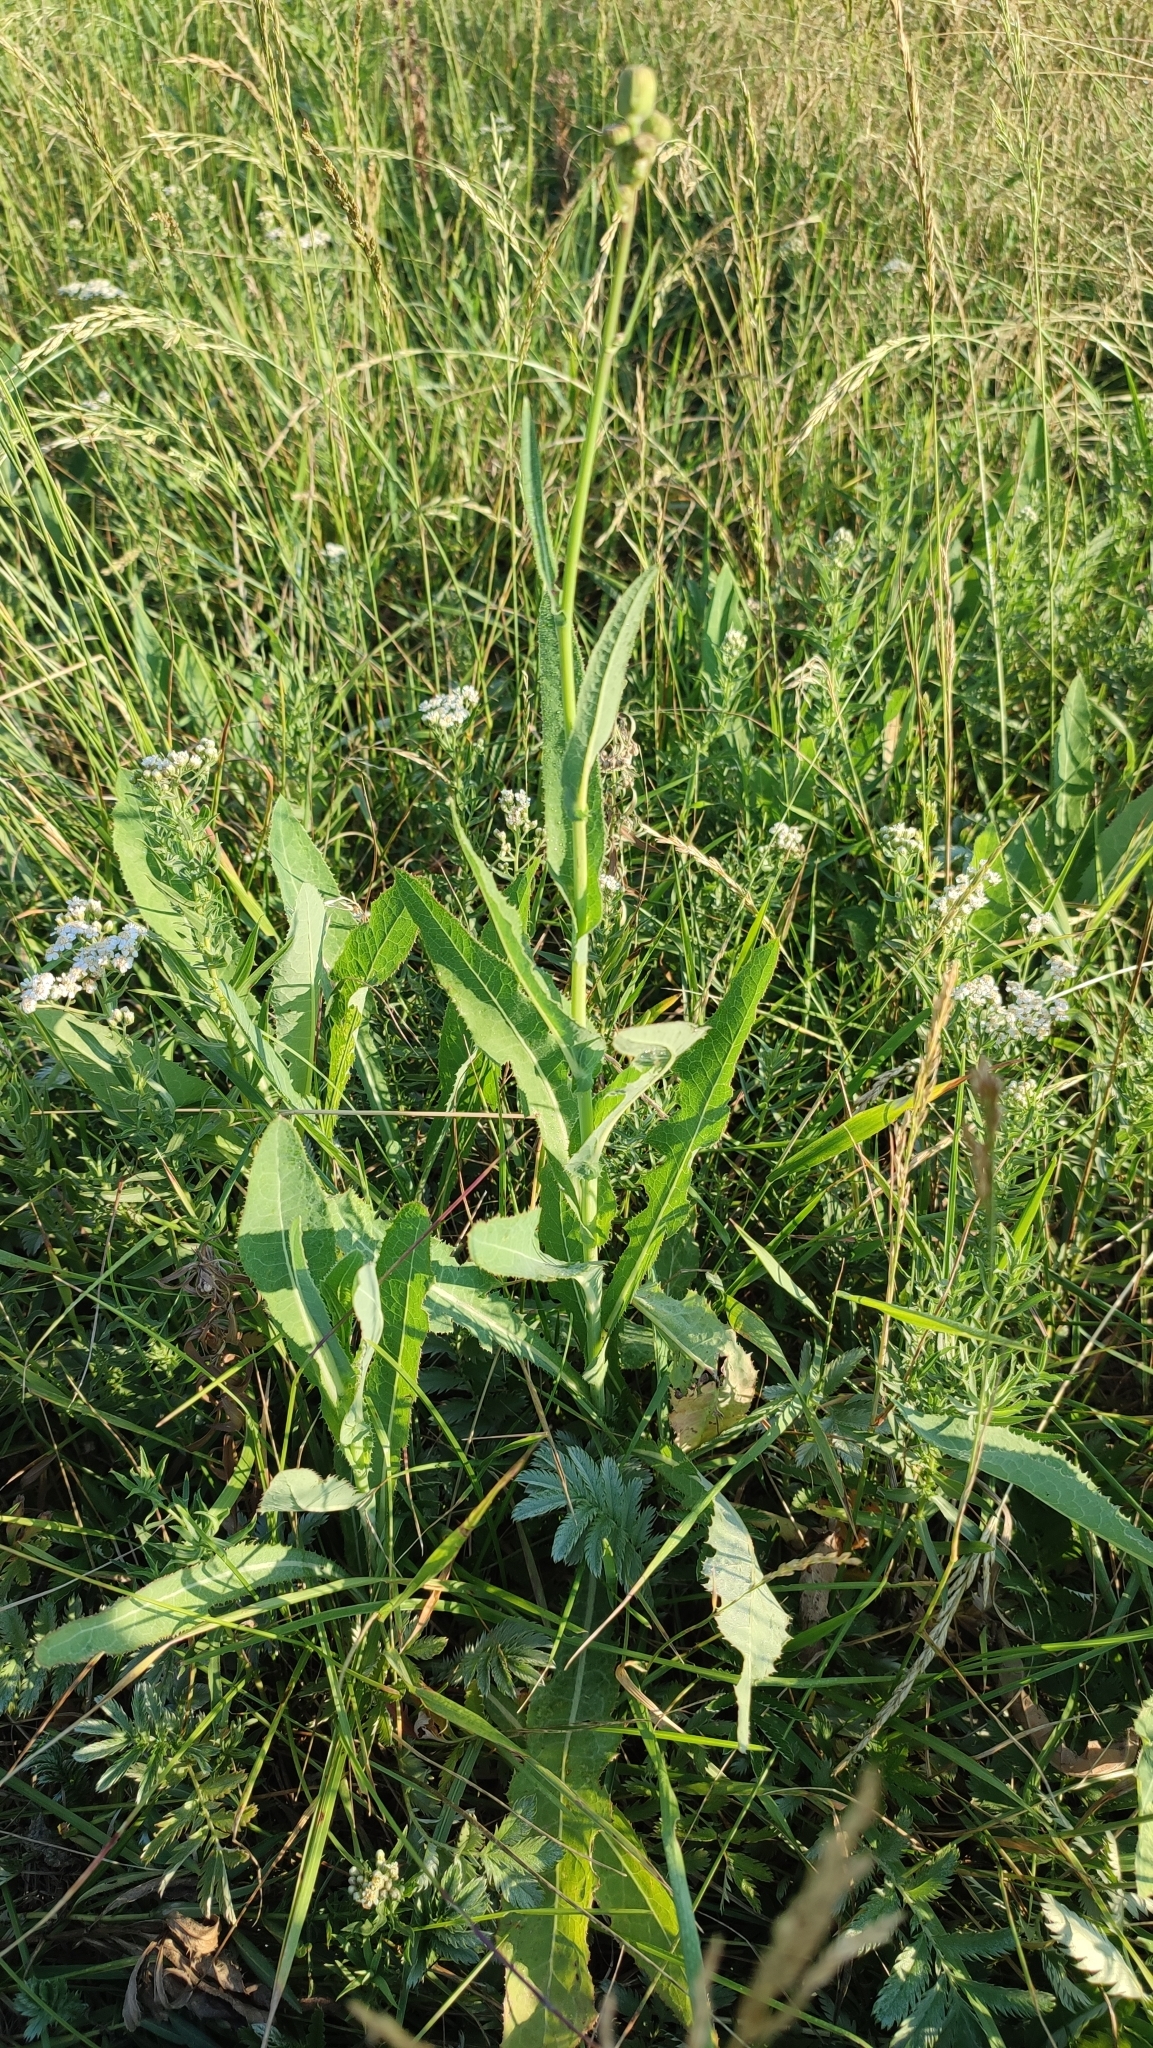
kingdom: Plantae
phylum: Tracheophyta
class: Magnoliopsida
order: Asterales
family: Asteraceae
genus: Sonchus
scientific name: Sonchus arvensis
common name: Perennial sow-thistle
